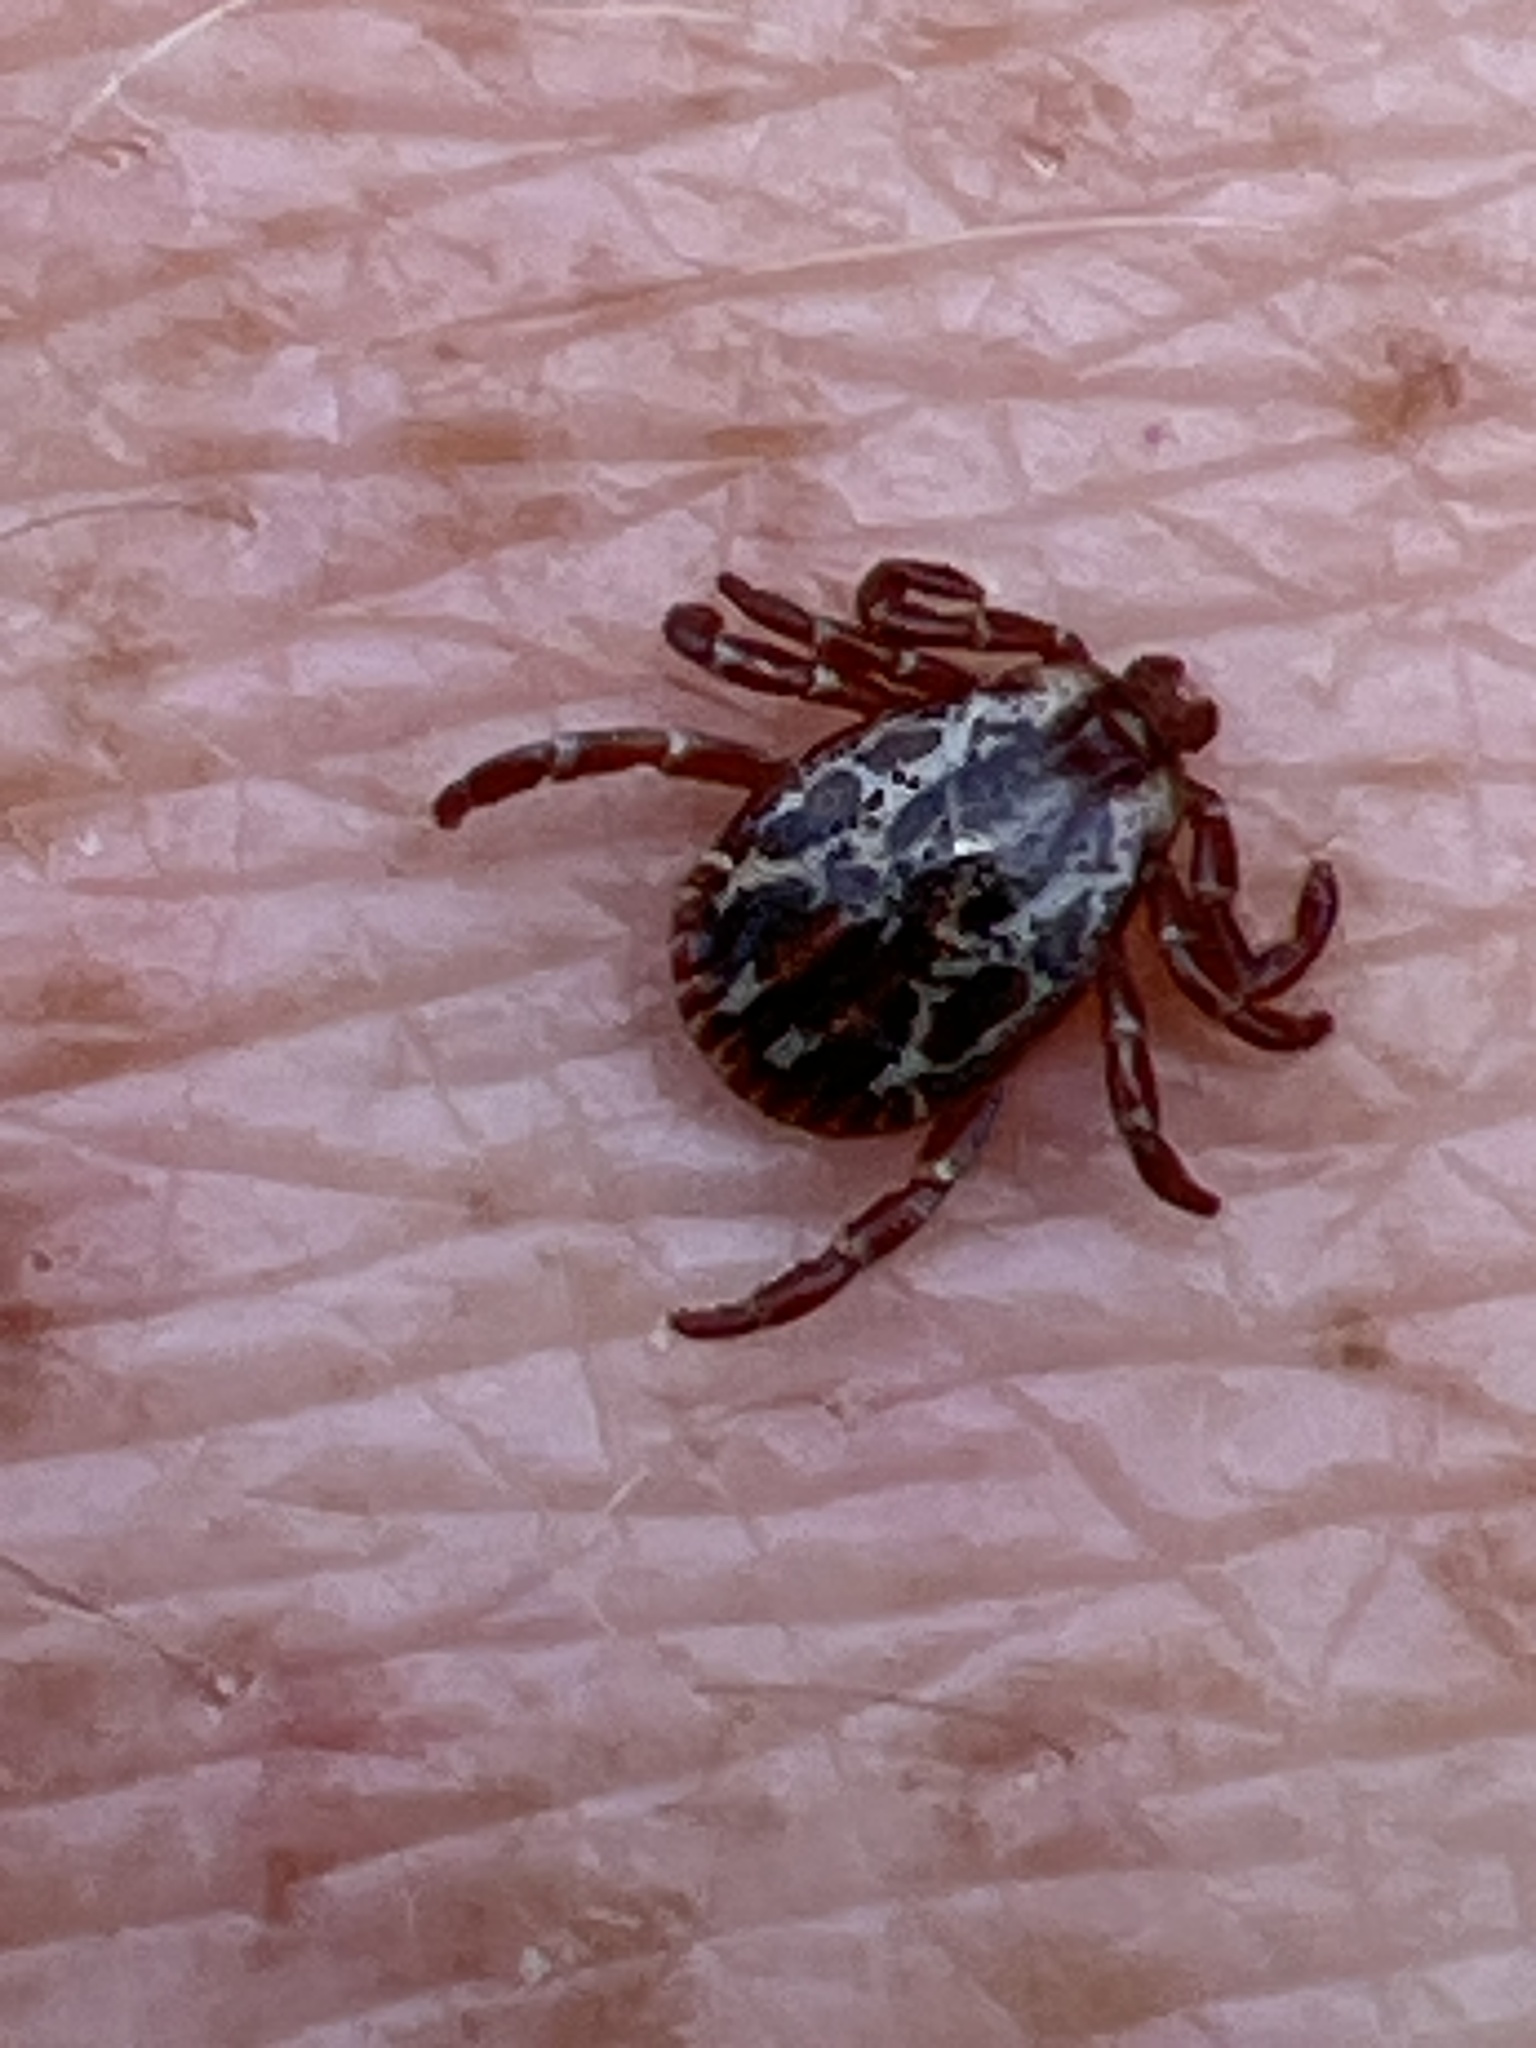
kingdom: Animalia
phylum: Arthropoda
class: Arachnida
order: Ixodida
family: Ixodidae
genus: Dermacentor
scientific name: Dermacentor variabilis
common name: American dog tick
